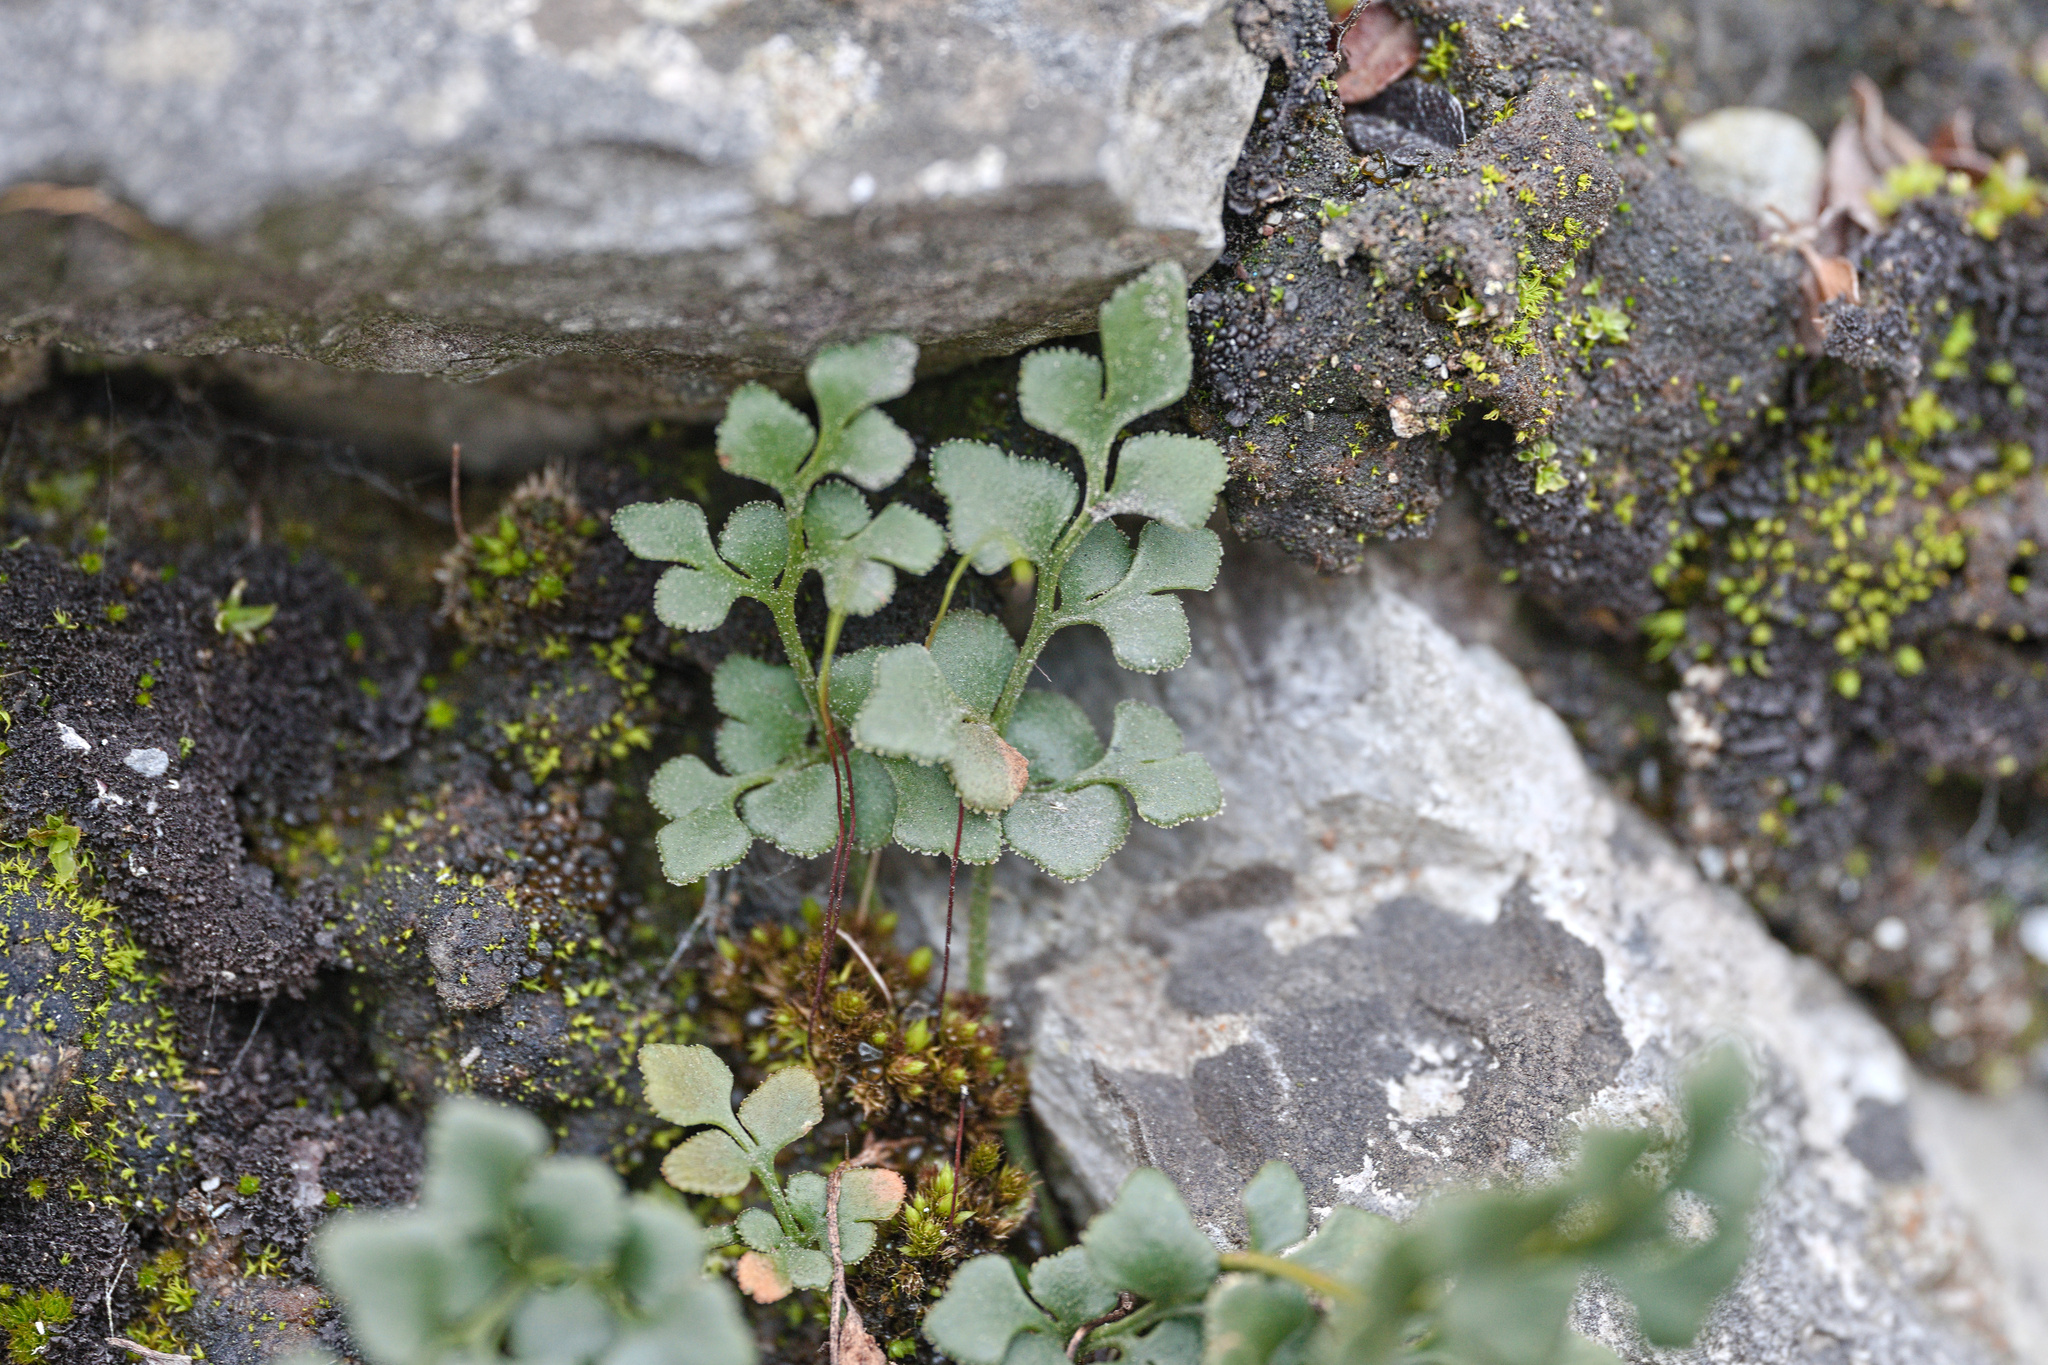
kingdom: Plantae
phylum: Tracheophyta
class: Polypodiopsida
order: Polypodiales
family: Aspleniaceae
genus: Asplenium
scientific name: Asplenium ruta-muraria
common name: Wall-rue
